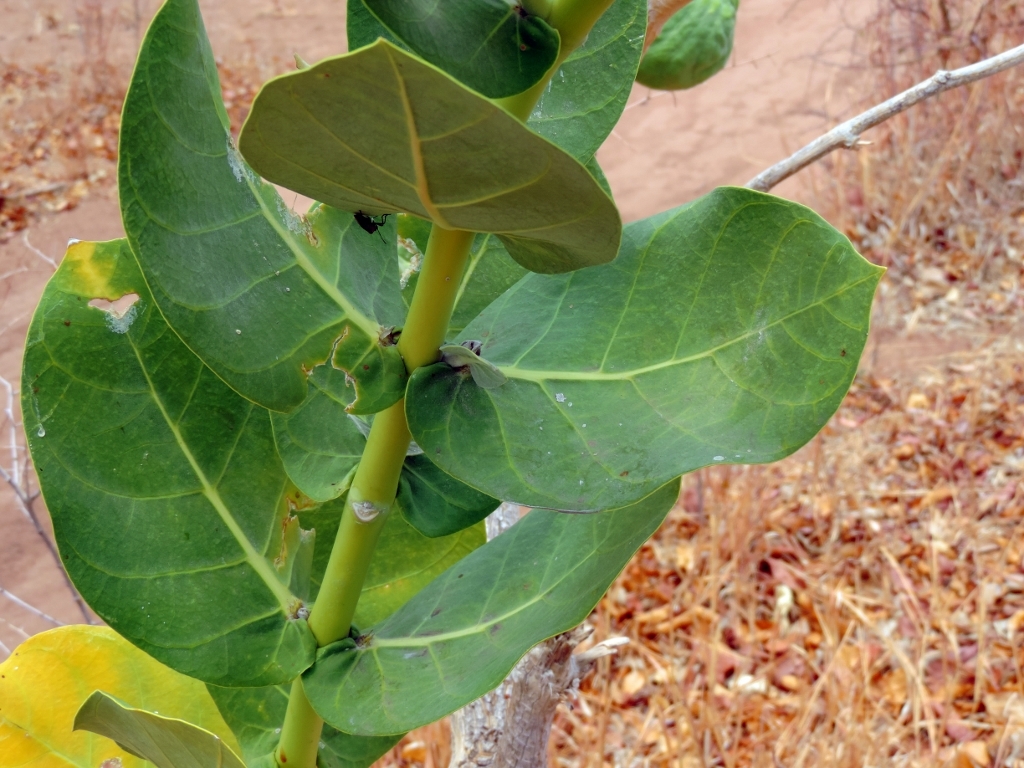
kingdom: Plantae
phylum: Tracheophyta
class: Magnoliopsida
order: Gentianales
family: Apocynaceae
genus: Calotropis
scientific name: Calotropis procera
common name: Roostertree
